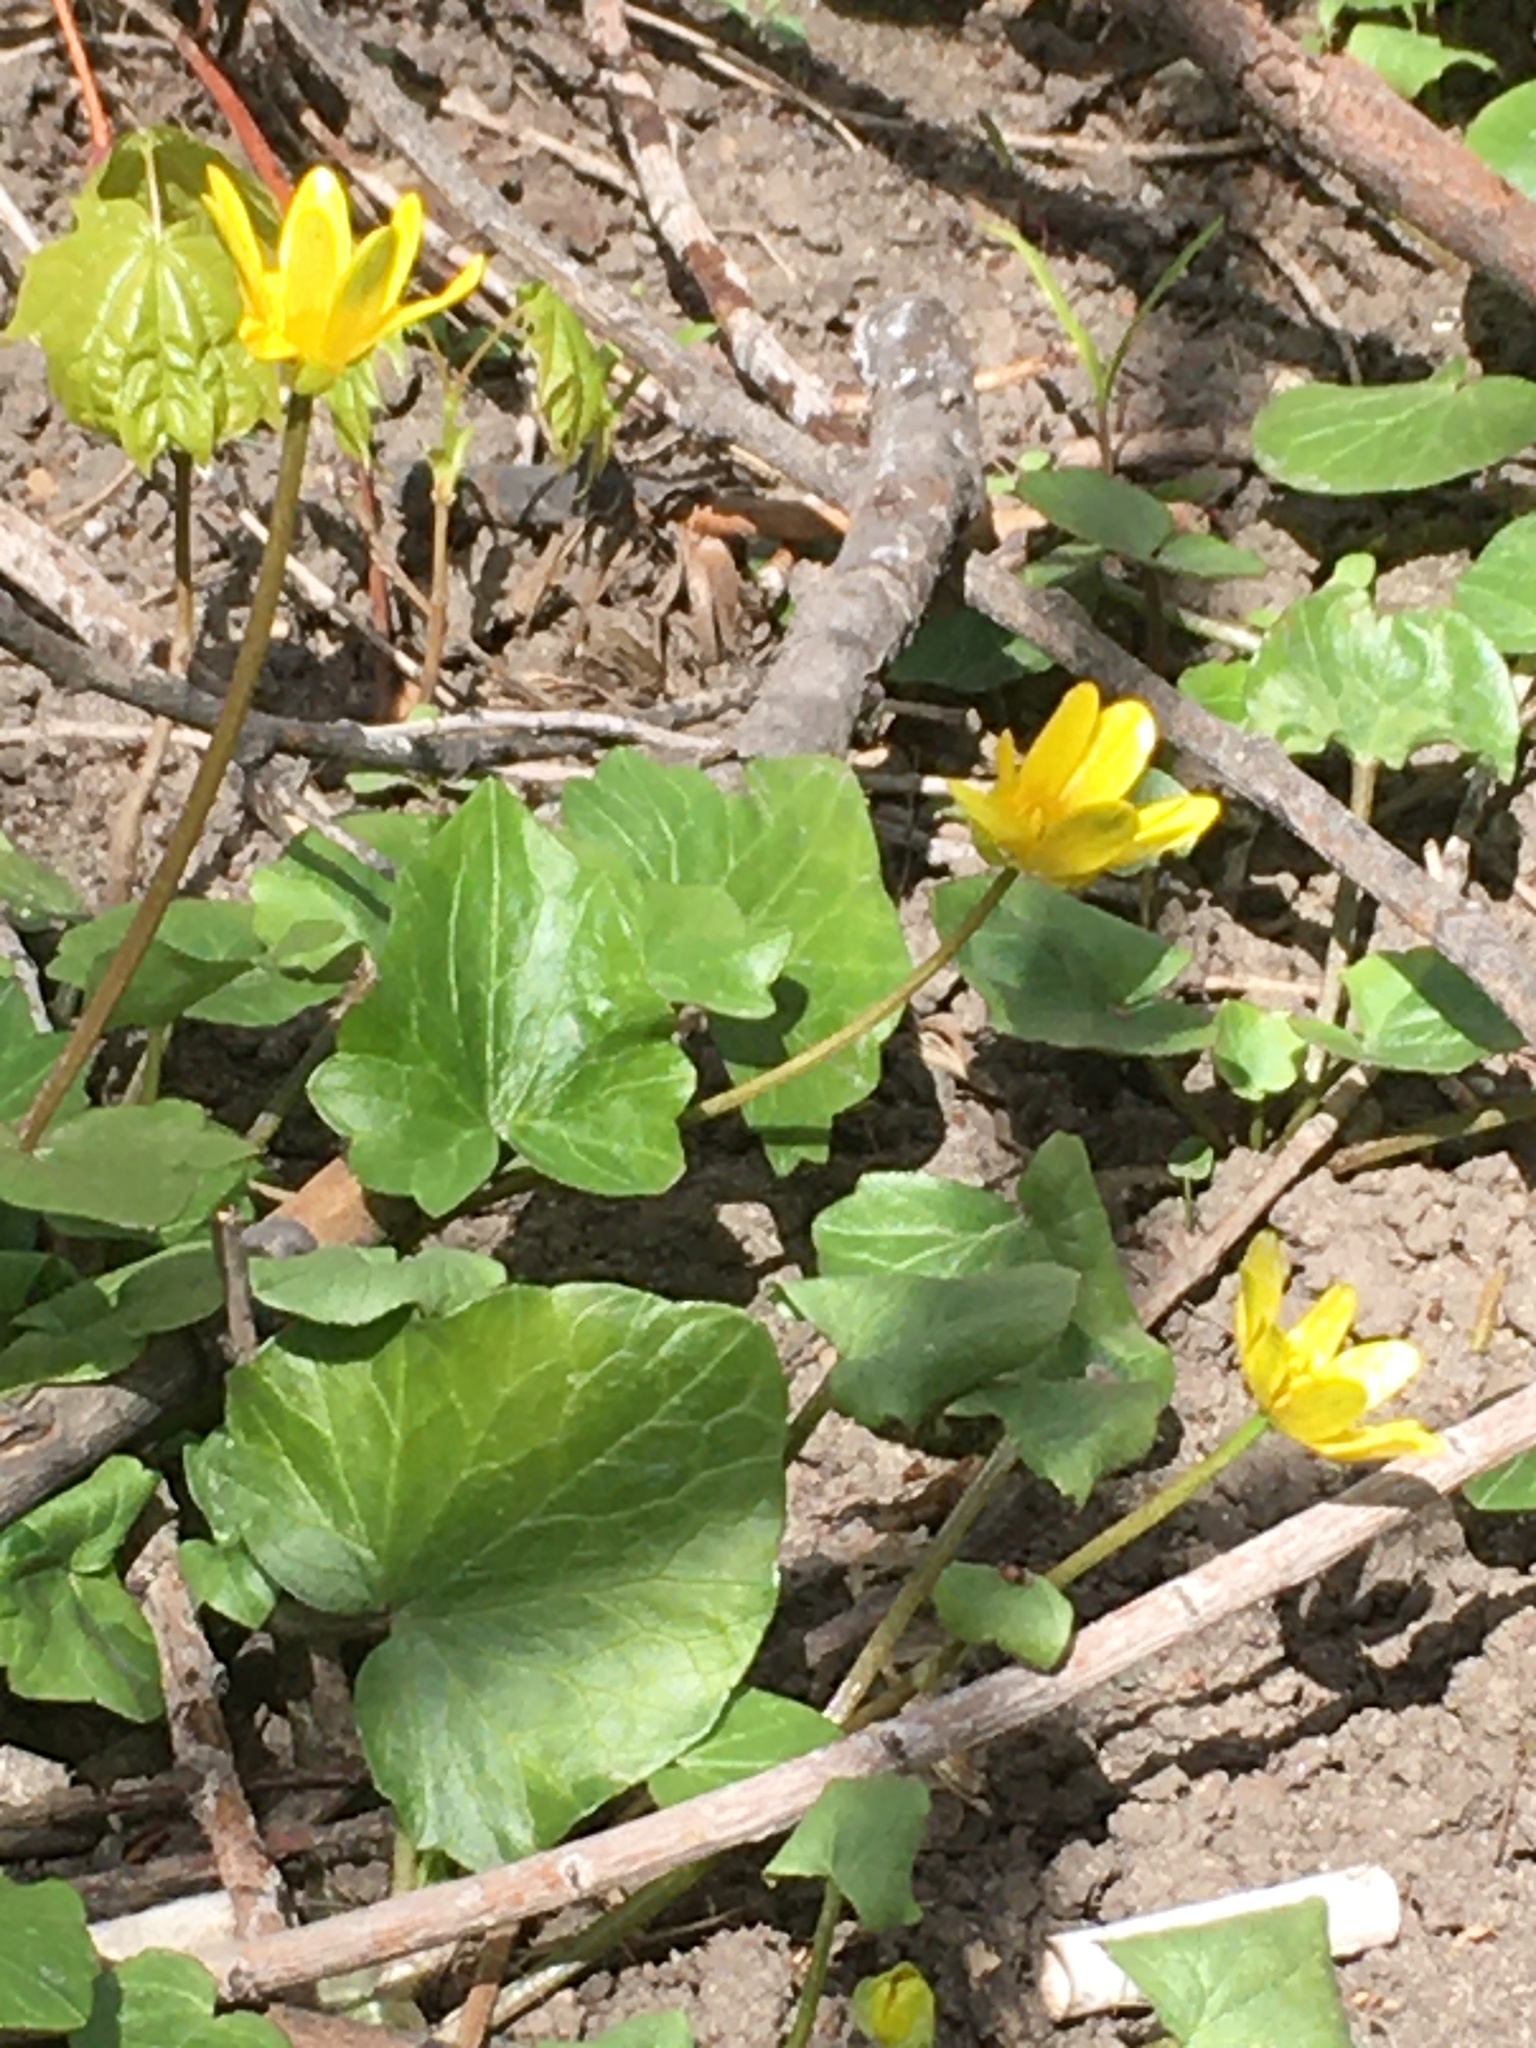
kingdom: Plantae
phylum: Tracheophyta
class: Magnoliopsida
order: Ranunculales
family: Ranunculaceae
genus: Ficaria
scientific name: Ficaria verna
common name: Lesser celandine
